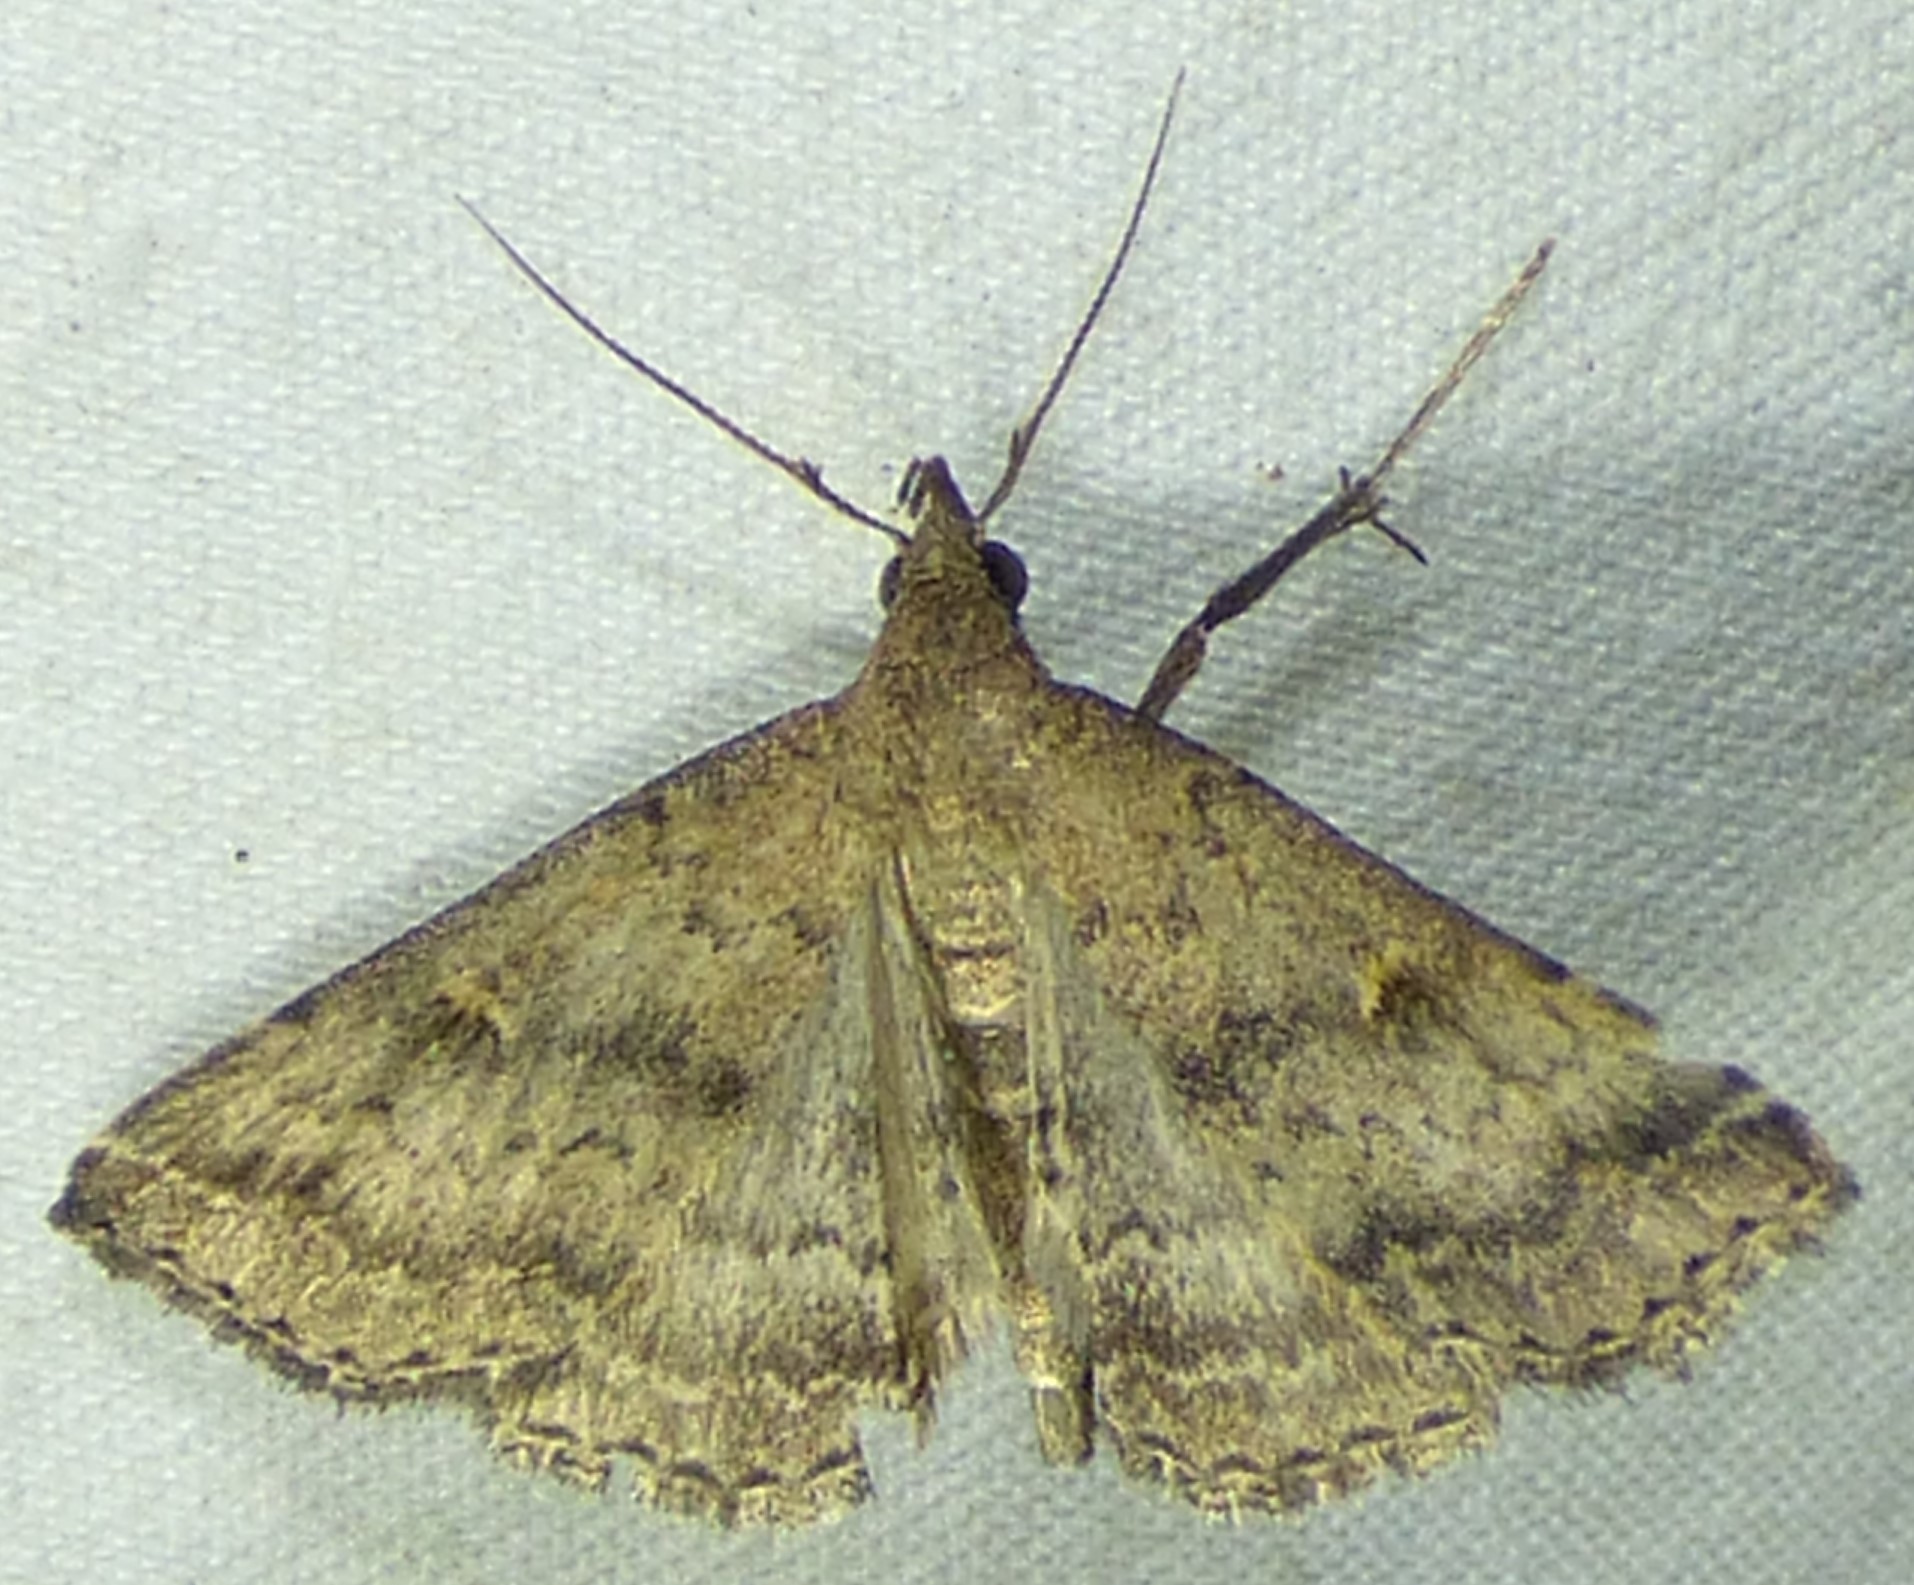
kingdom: Animalia
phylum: Arthropoda
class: Insecta
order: Lepidoptera
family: Erebidae
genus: Tetanolita
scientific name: Tetanolita floridana
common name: Florida tetanolita moth
